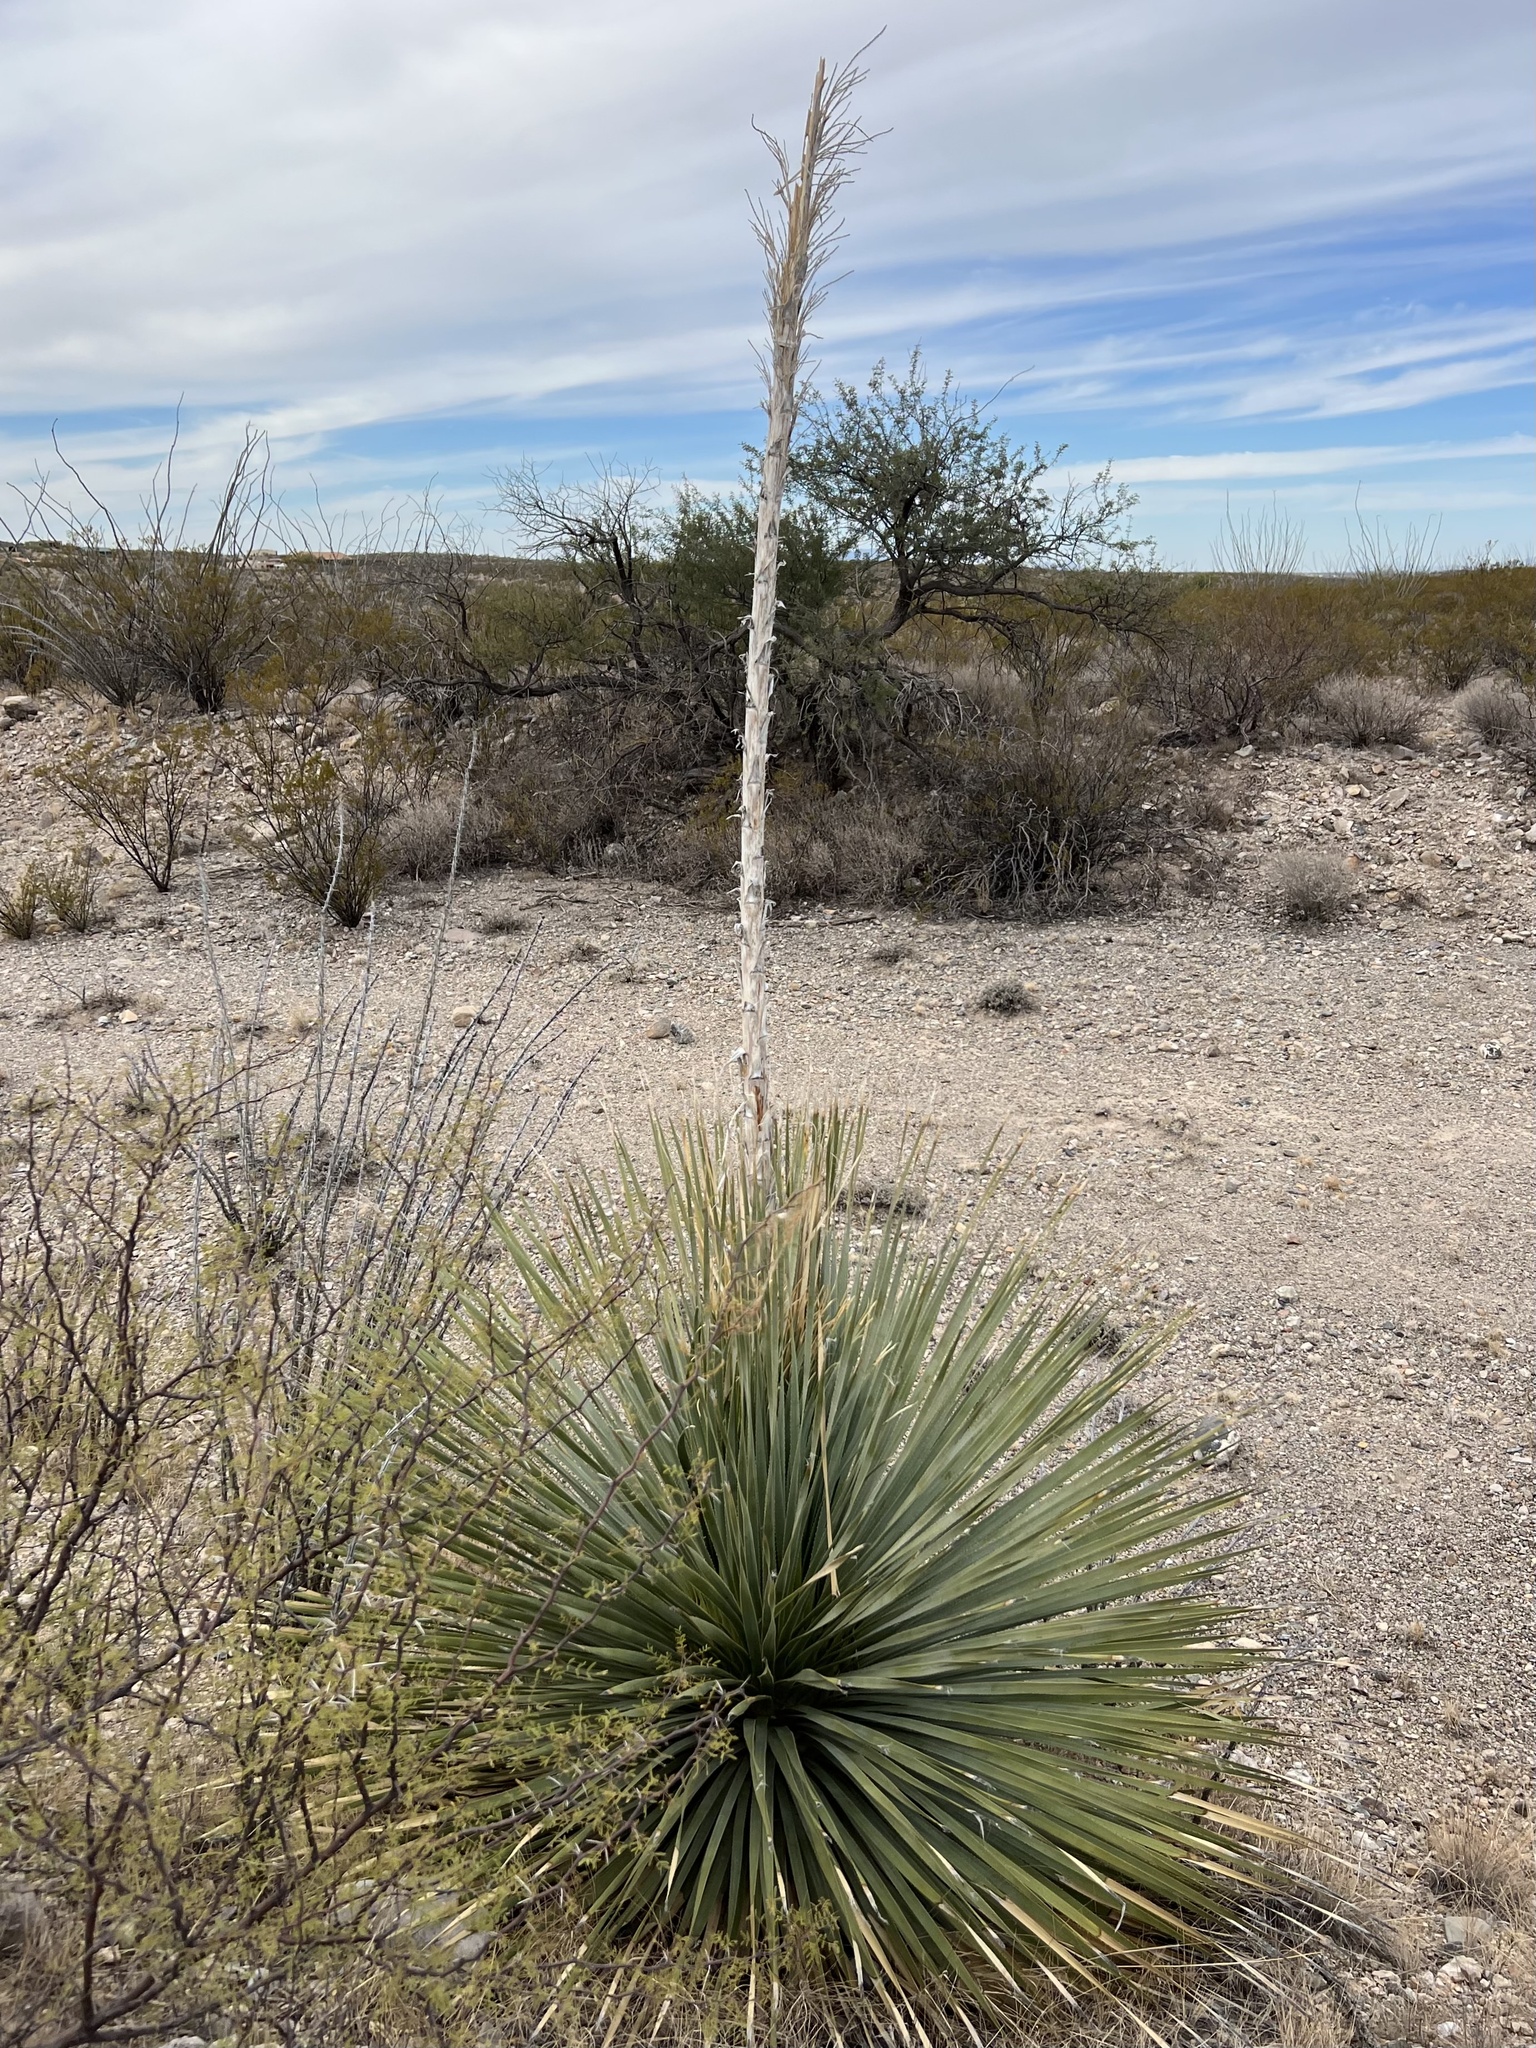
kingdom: Plantae
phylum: Tracheophyta
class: Liliopsida
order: Asparagales
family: Asparagaceae
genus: Dasylirion
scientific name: Dasylirion wheeleri
